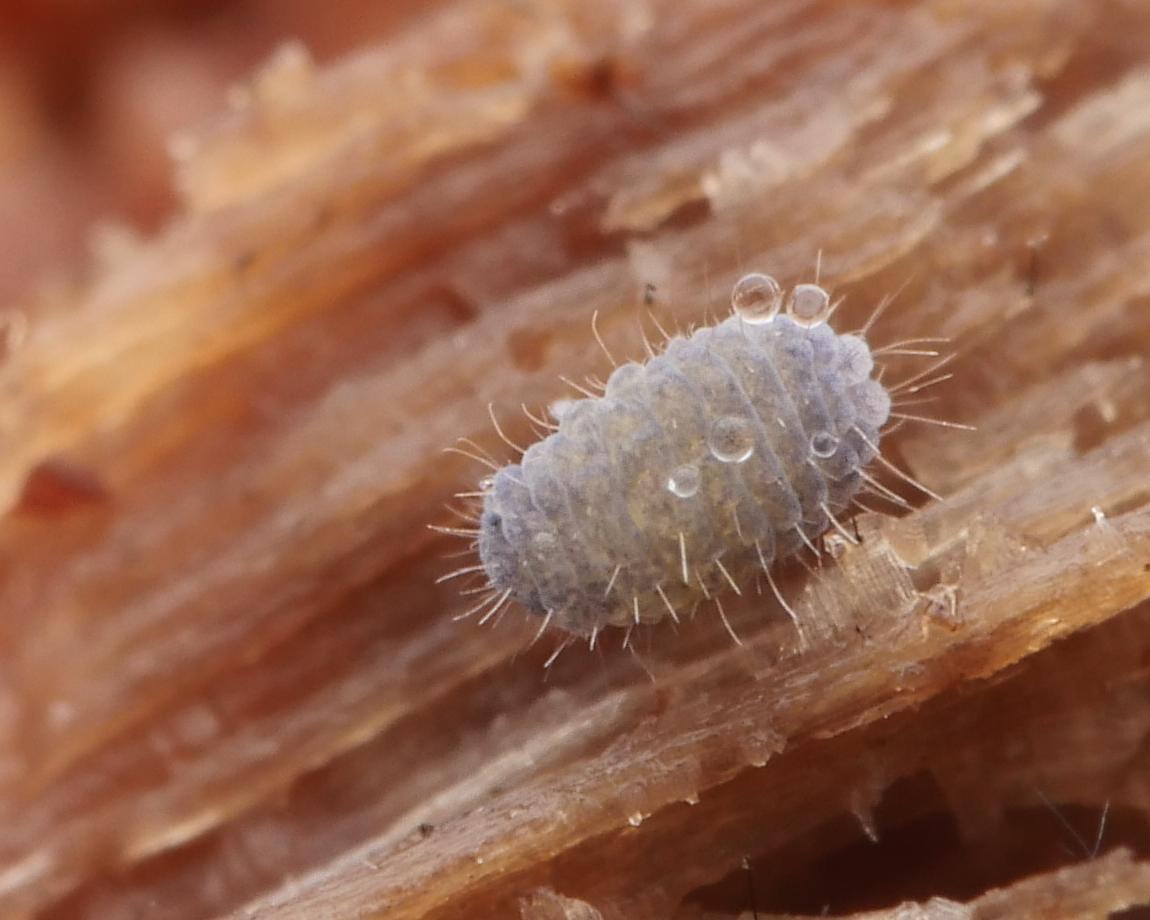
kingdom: Animalia
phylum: Arthropoda
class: Collembola
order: Poduromorpha
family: Neanuridae
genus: Neanura
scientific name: Neanura muscorum
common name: Springtail
